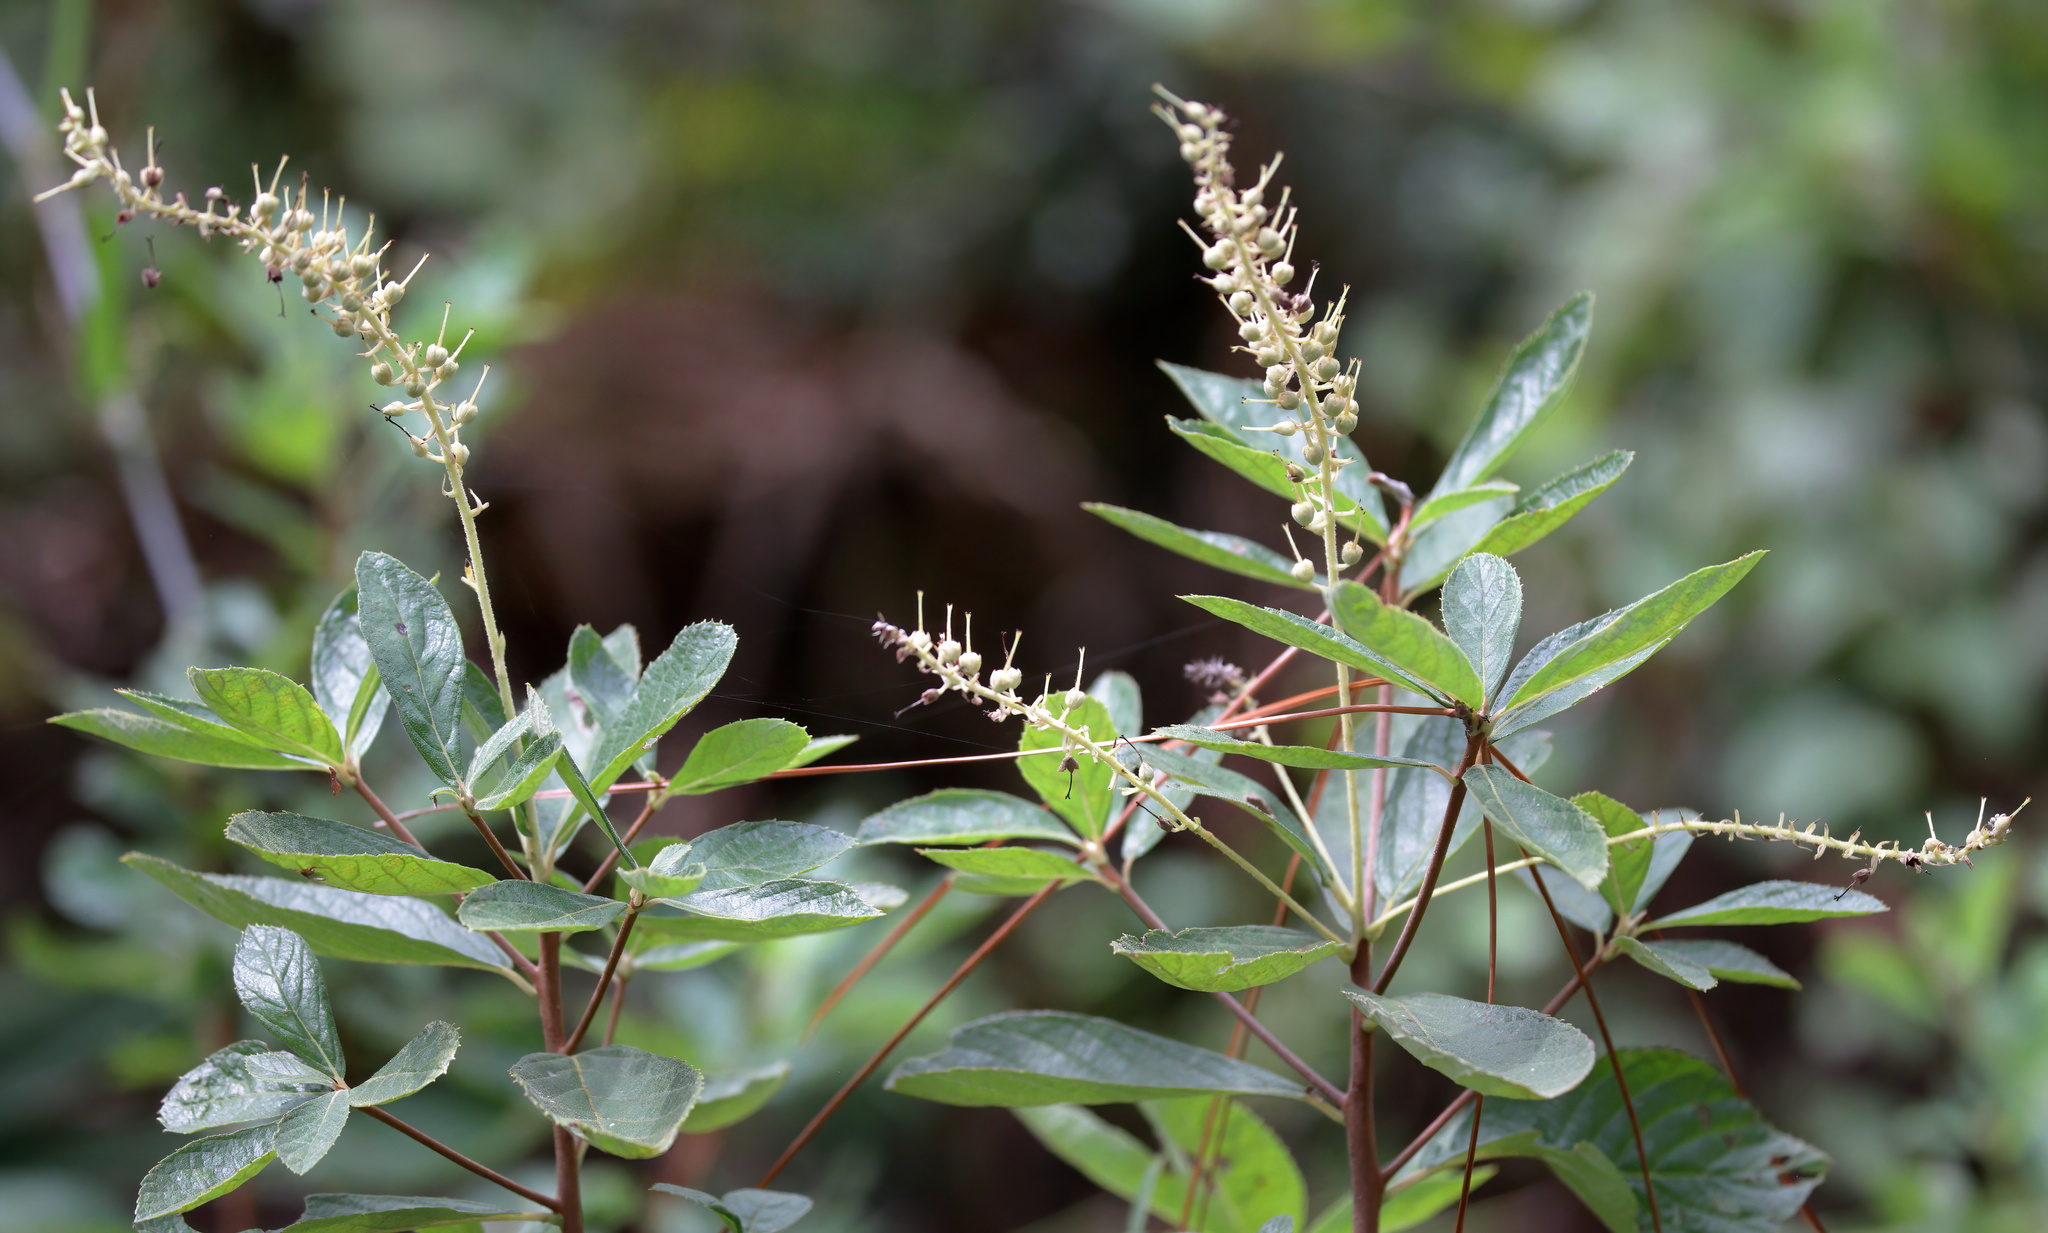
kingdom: Plantae
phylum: Tracheophyta
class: Magnoliopsida
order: Ericales
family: Clethraceae
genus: Clethra
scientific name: Clethra alnifolia
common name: Sweet pepperbush
